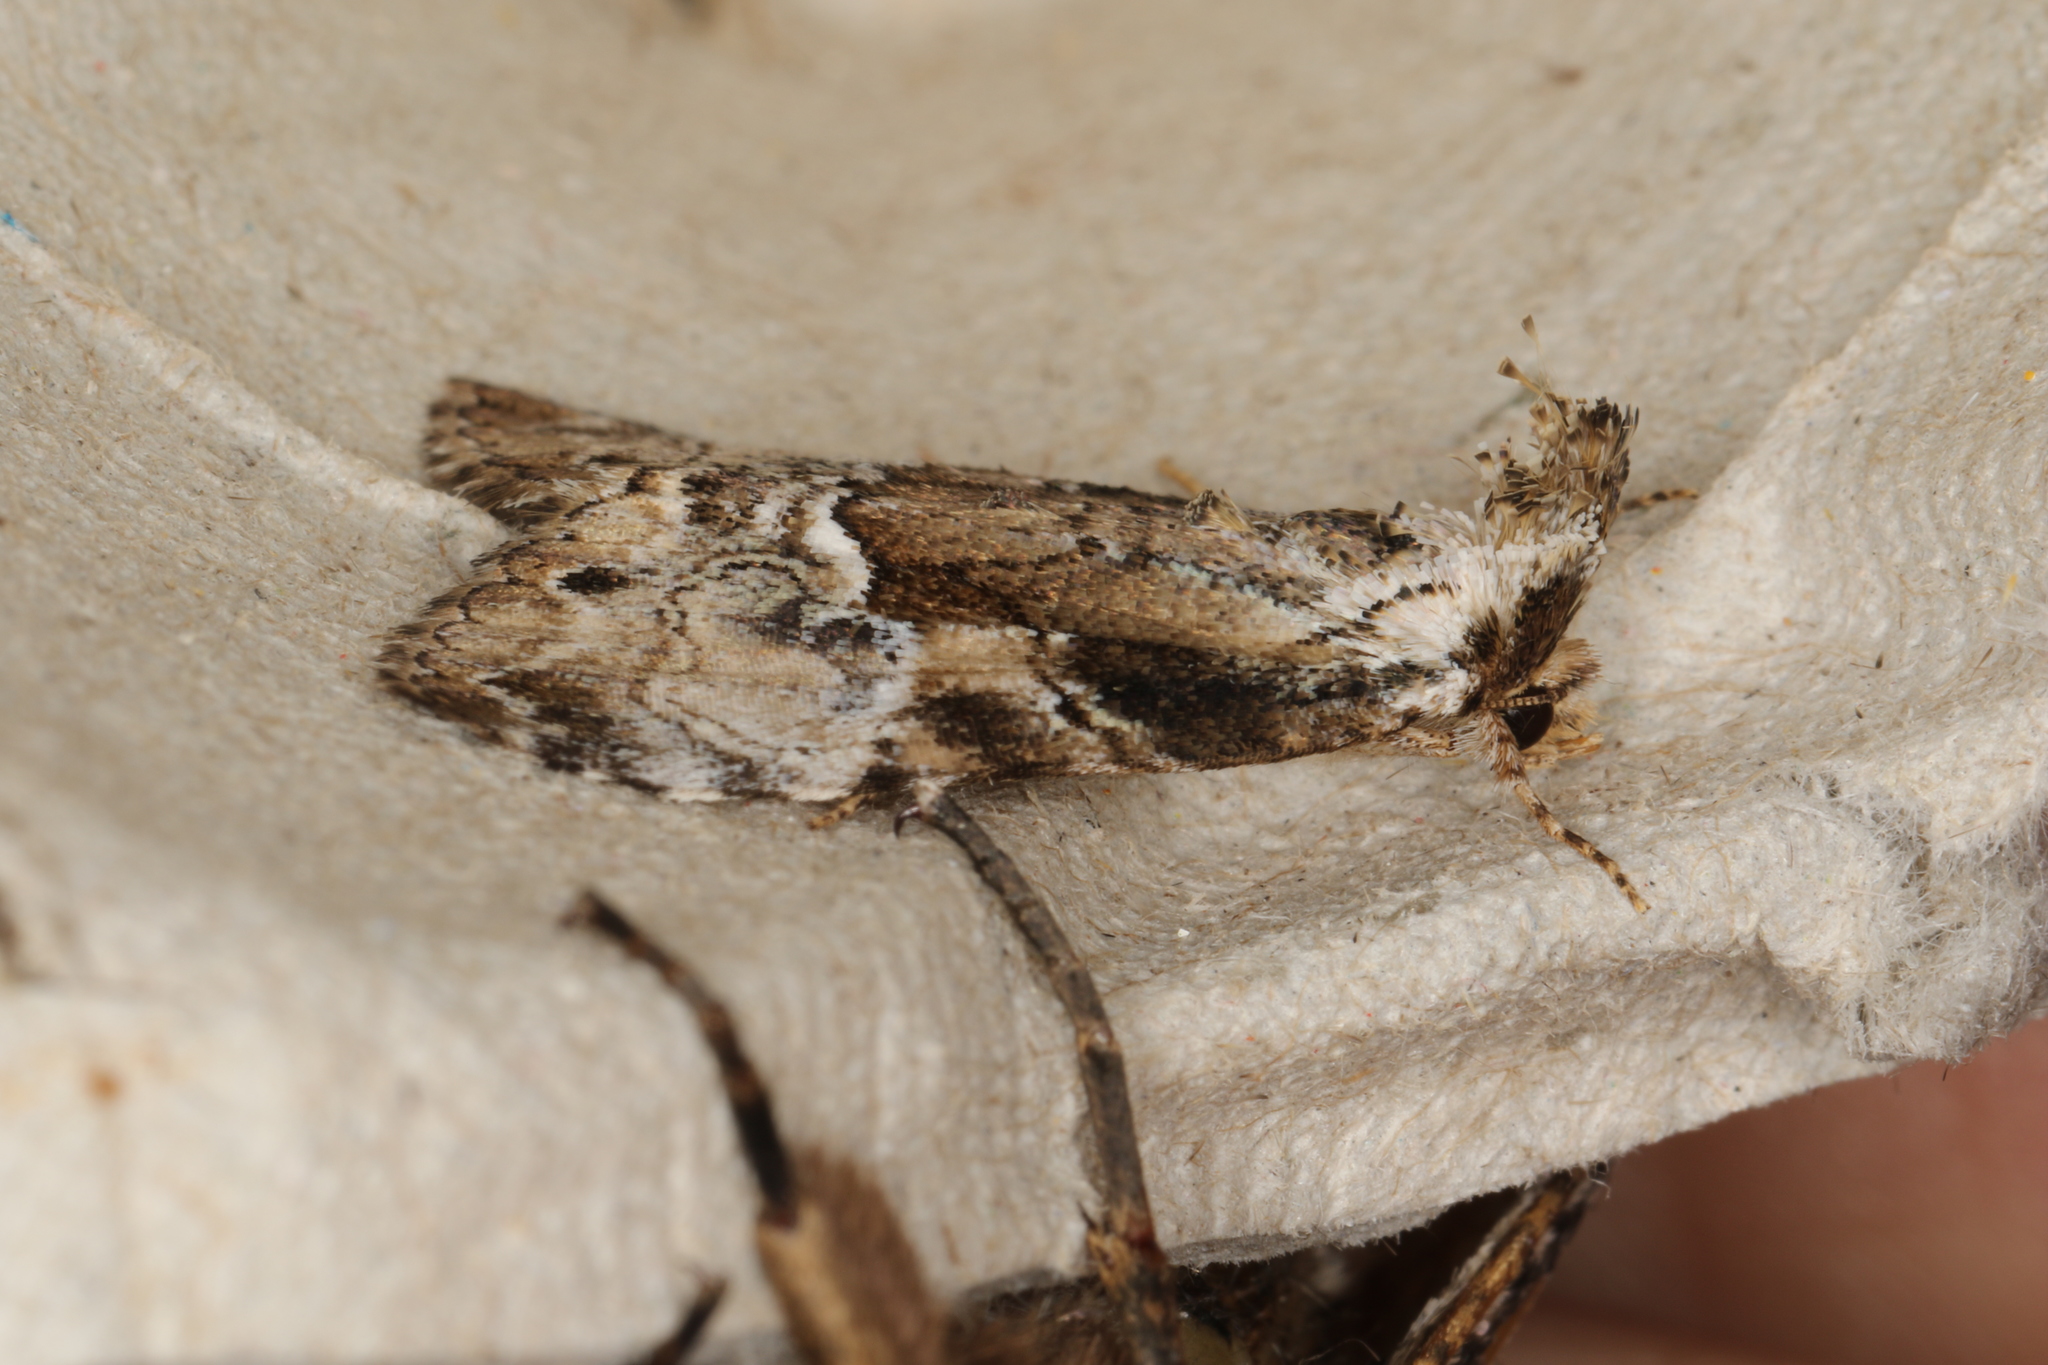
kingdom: Animalia
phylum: Arthropoda
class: Insecta
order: Lepidoptera
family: Erebidae
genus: Alophosoma
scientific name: Alophosoma emmelopis
